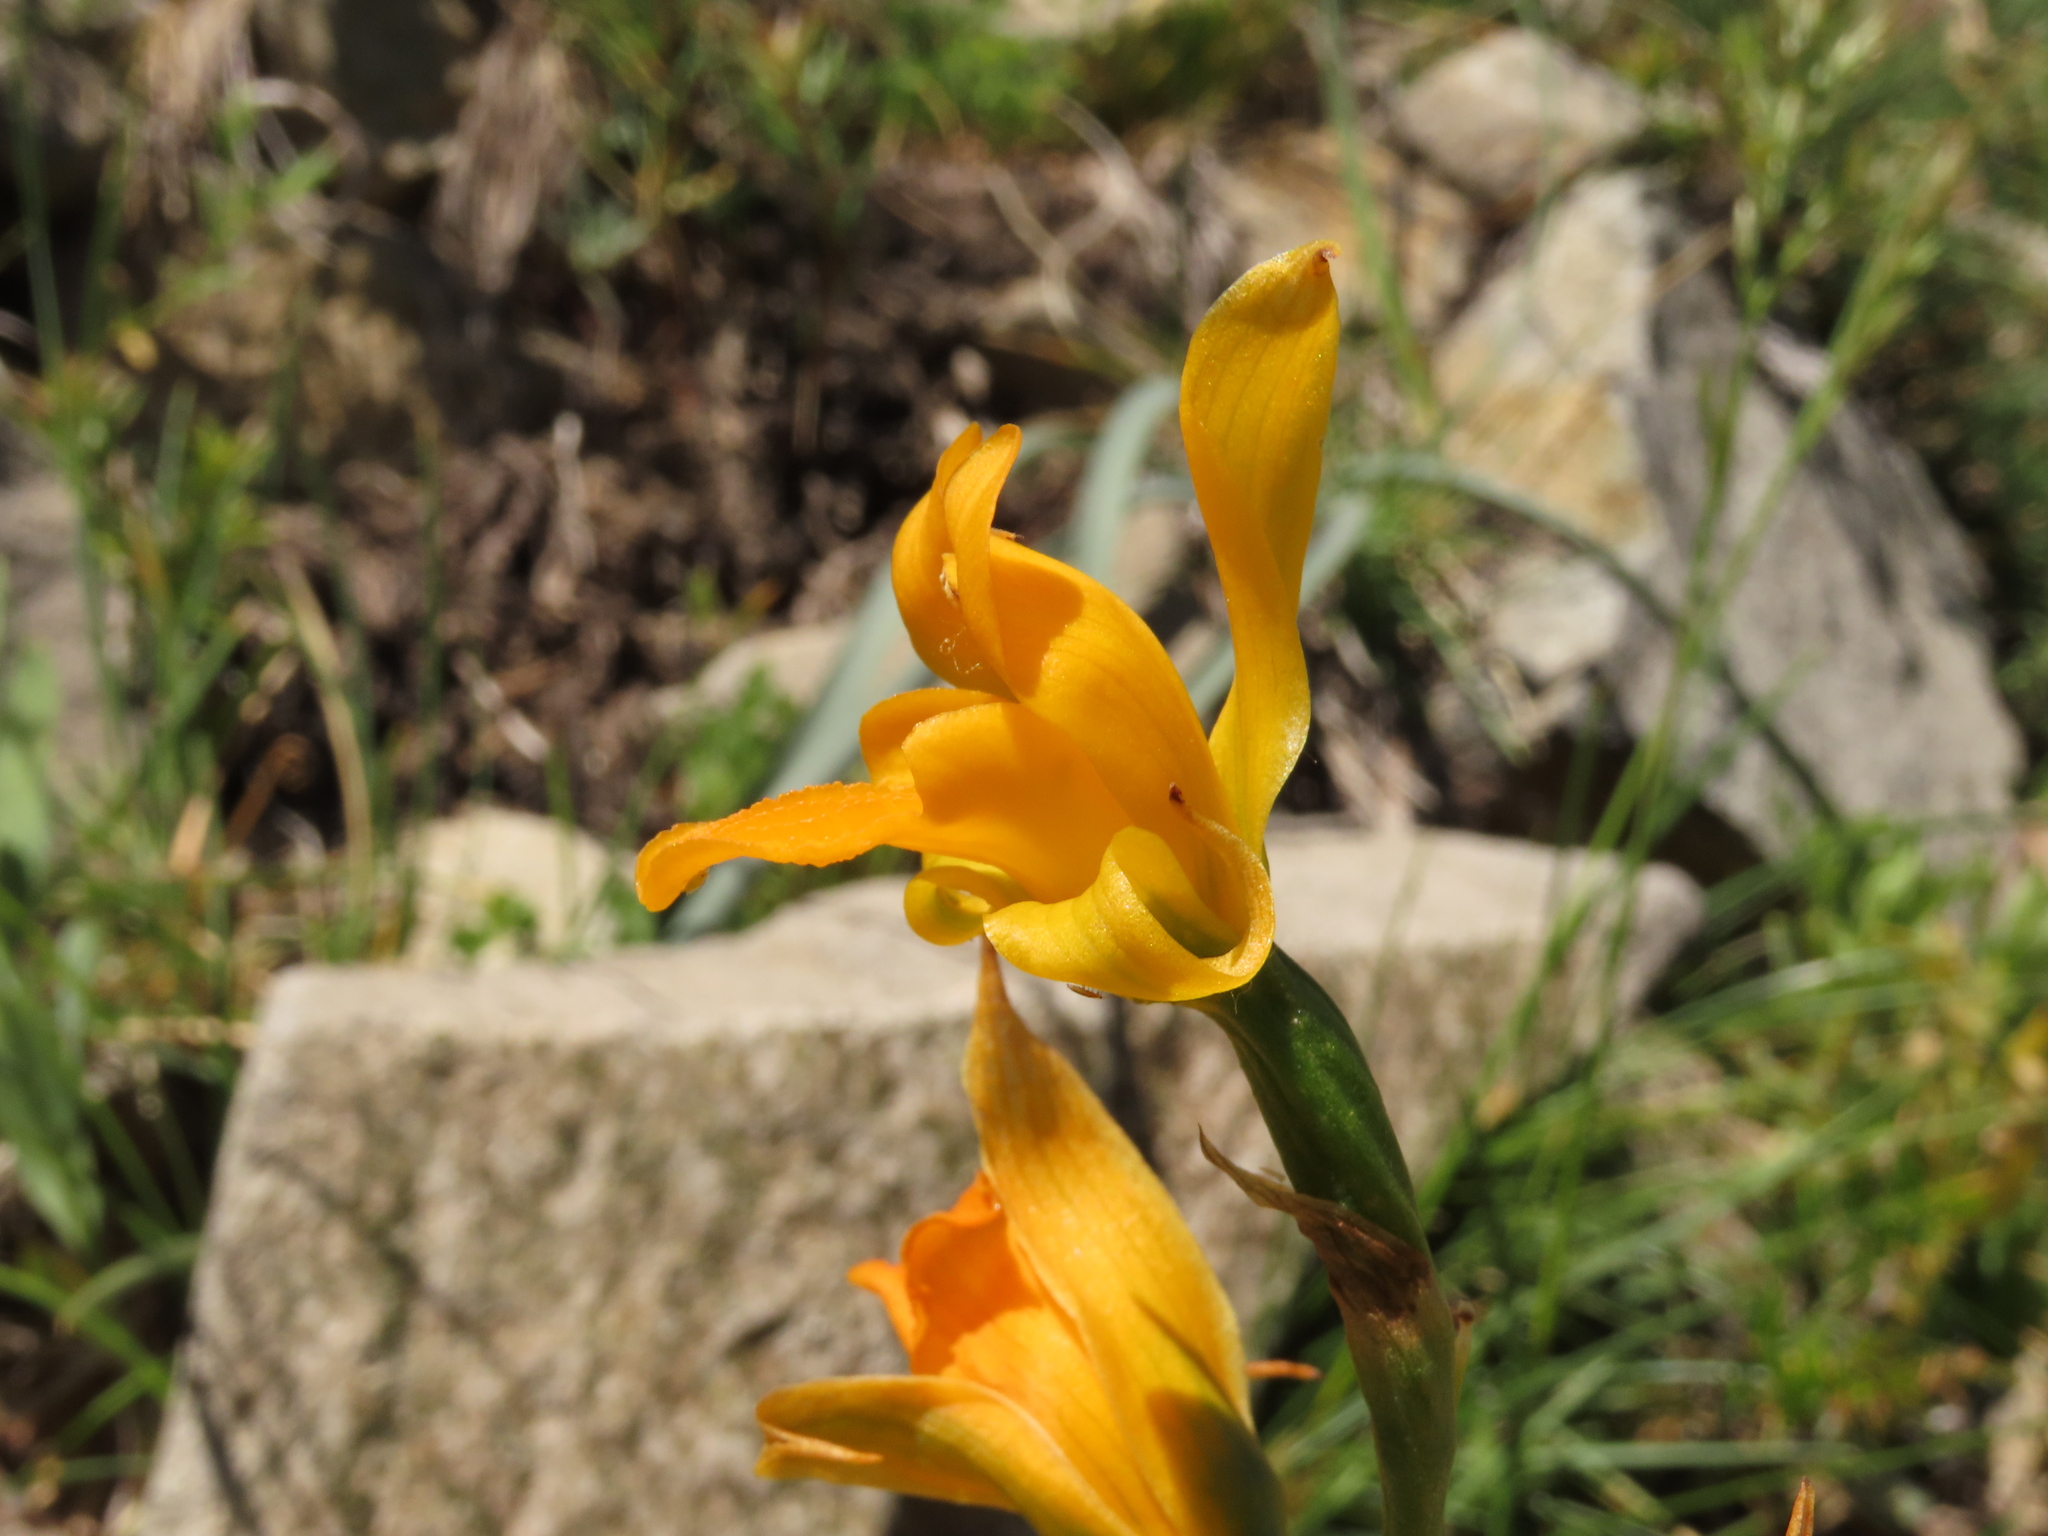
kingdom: Plantae
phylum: Tracheophyta
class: Liliopsida
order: Asparagales
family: Orchidaceae
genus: Chloraea
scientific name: Chloraea alpina
